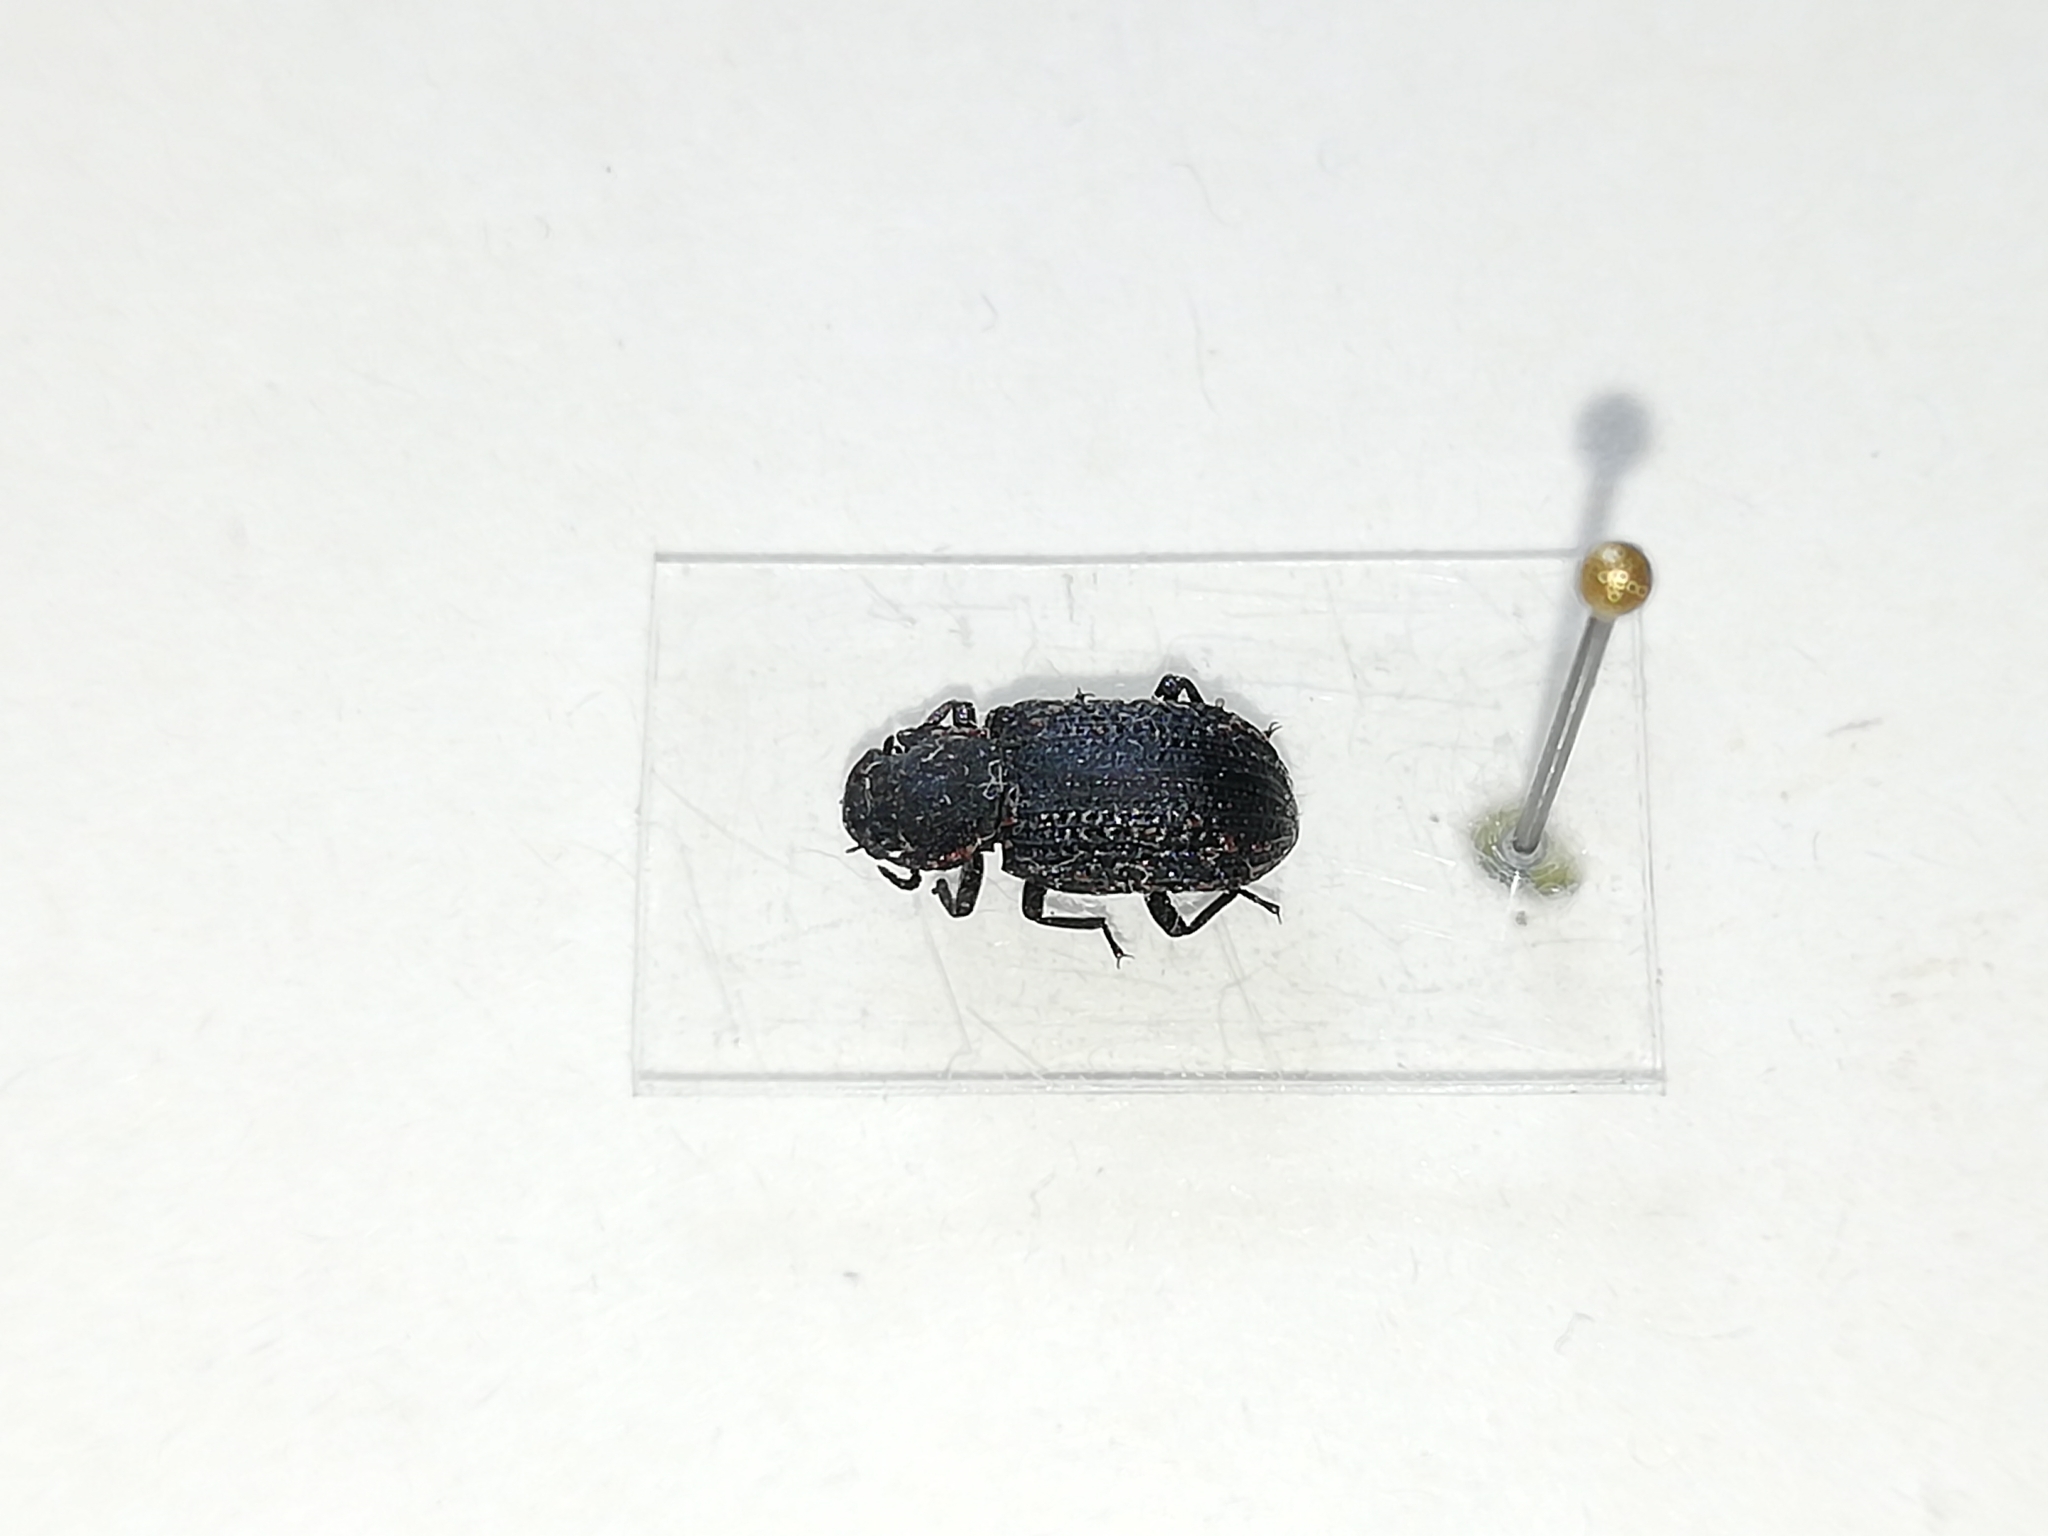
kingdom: Animalia
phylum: Arthropoda
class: Insecta
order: Coleoptera
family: Tenebrionidae
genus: Bolitophagus
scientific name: Bolitophagus reticulatus
